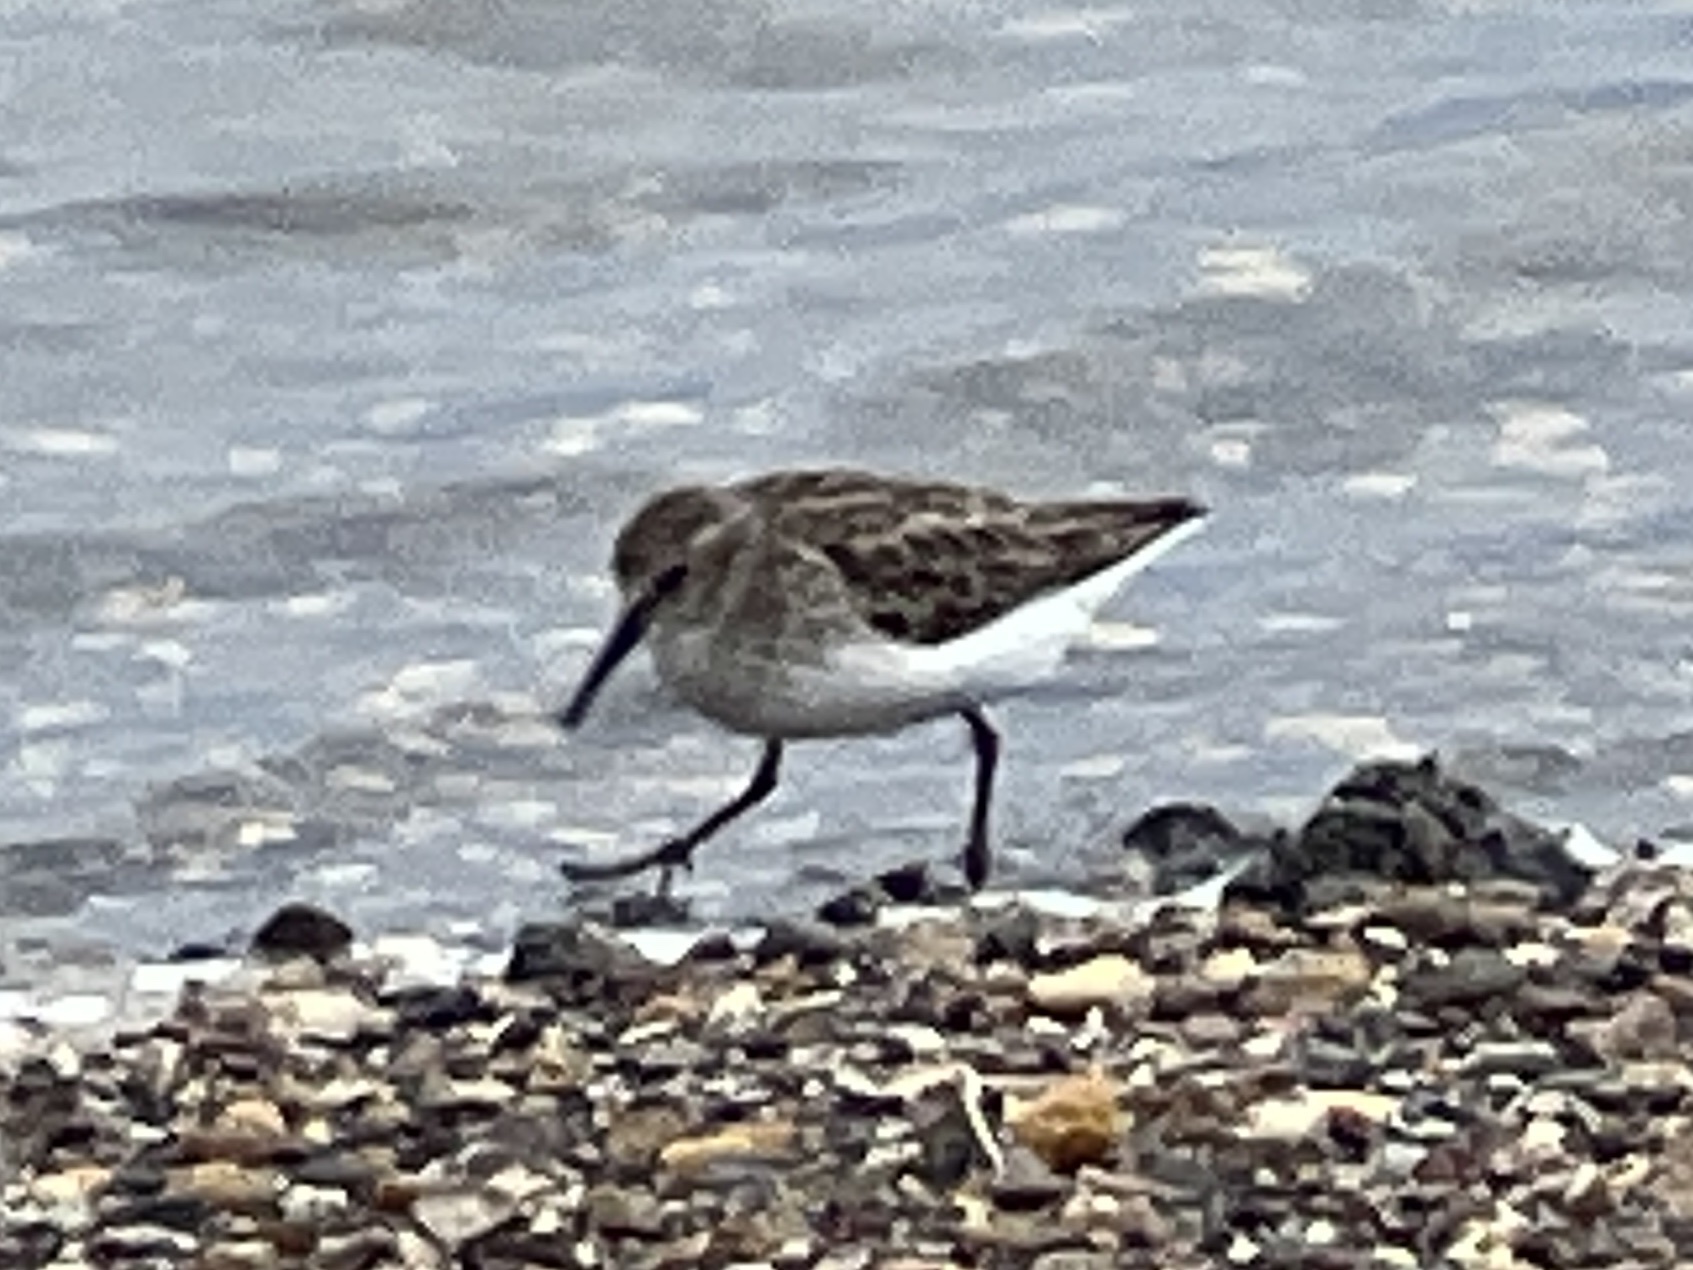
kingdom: Animalia
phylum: Chordata
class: Aves
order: Charadriiformes
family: Scolopacidae
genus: Calidris
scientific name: Calidris minutilla
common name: Least sandpiper
